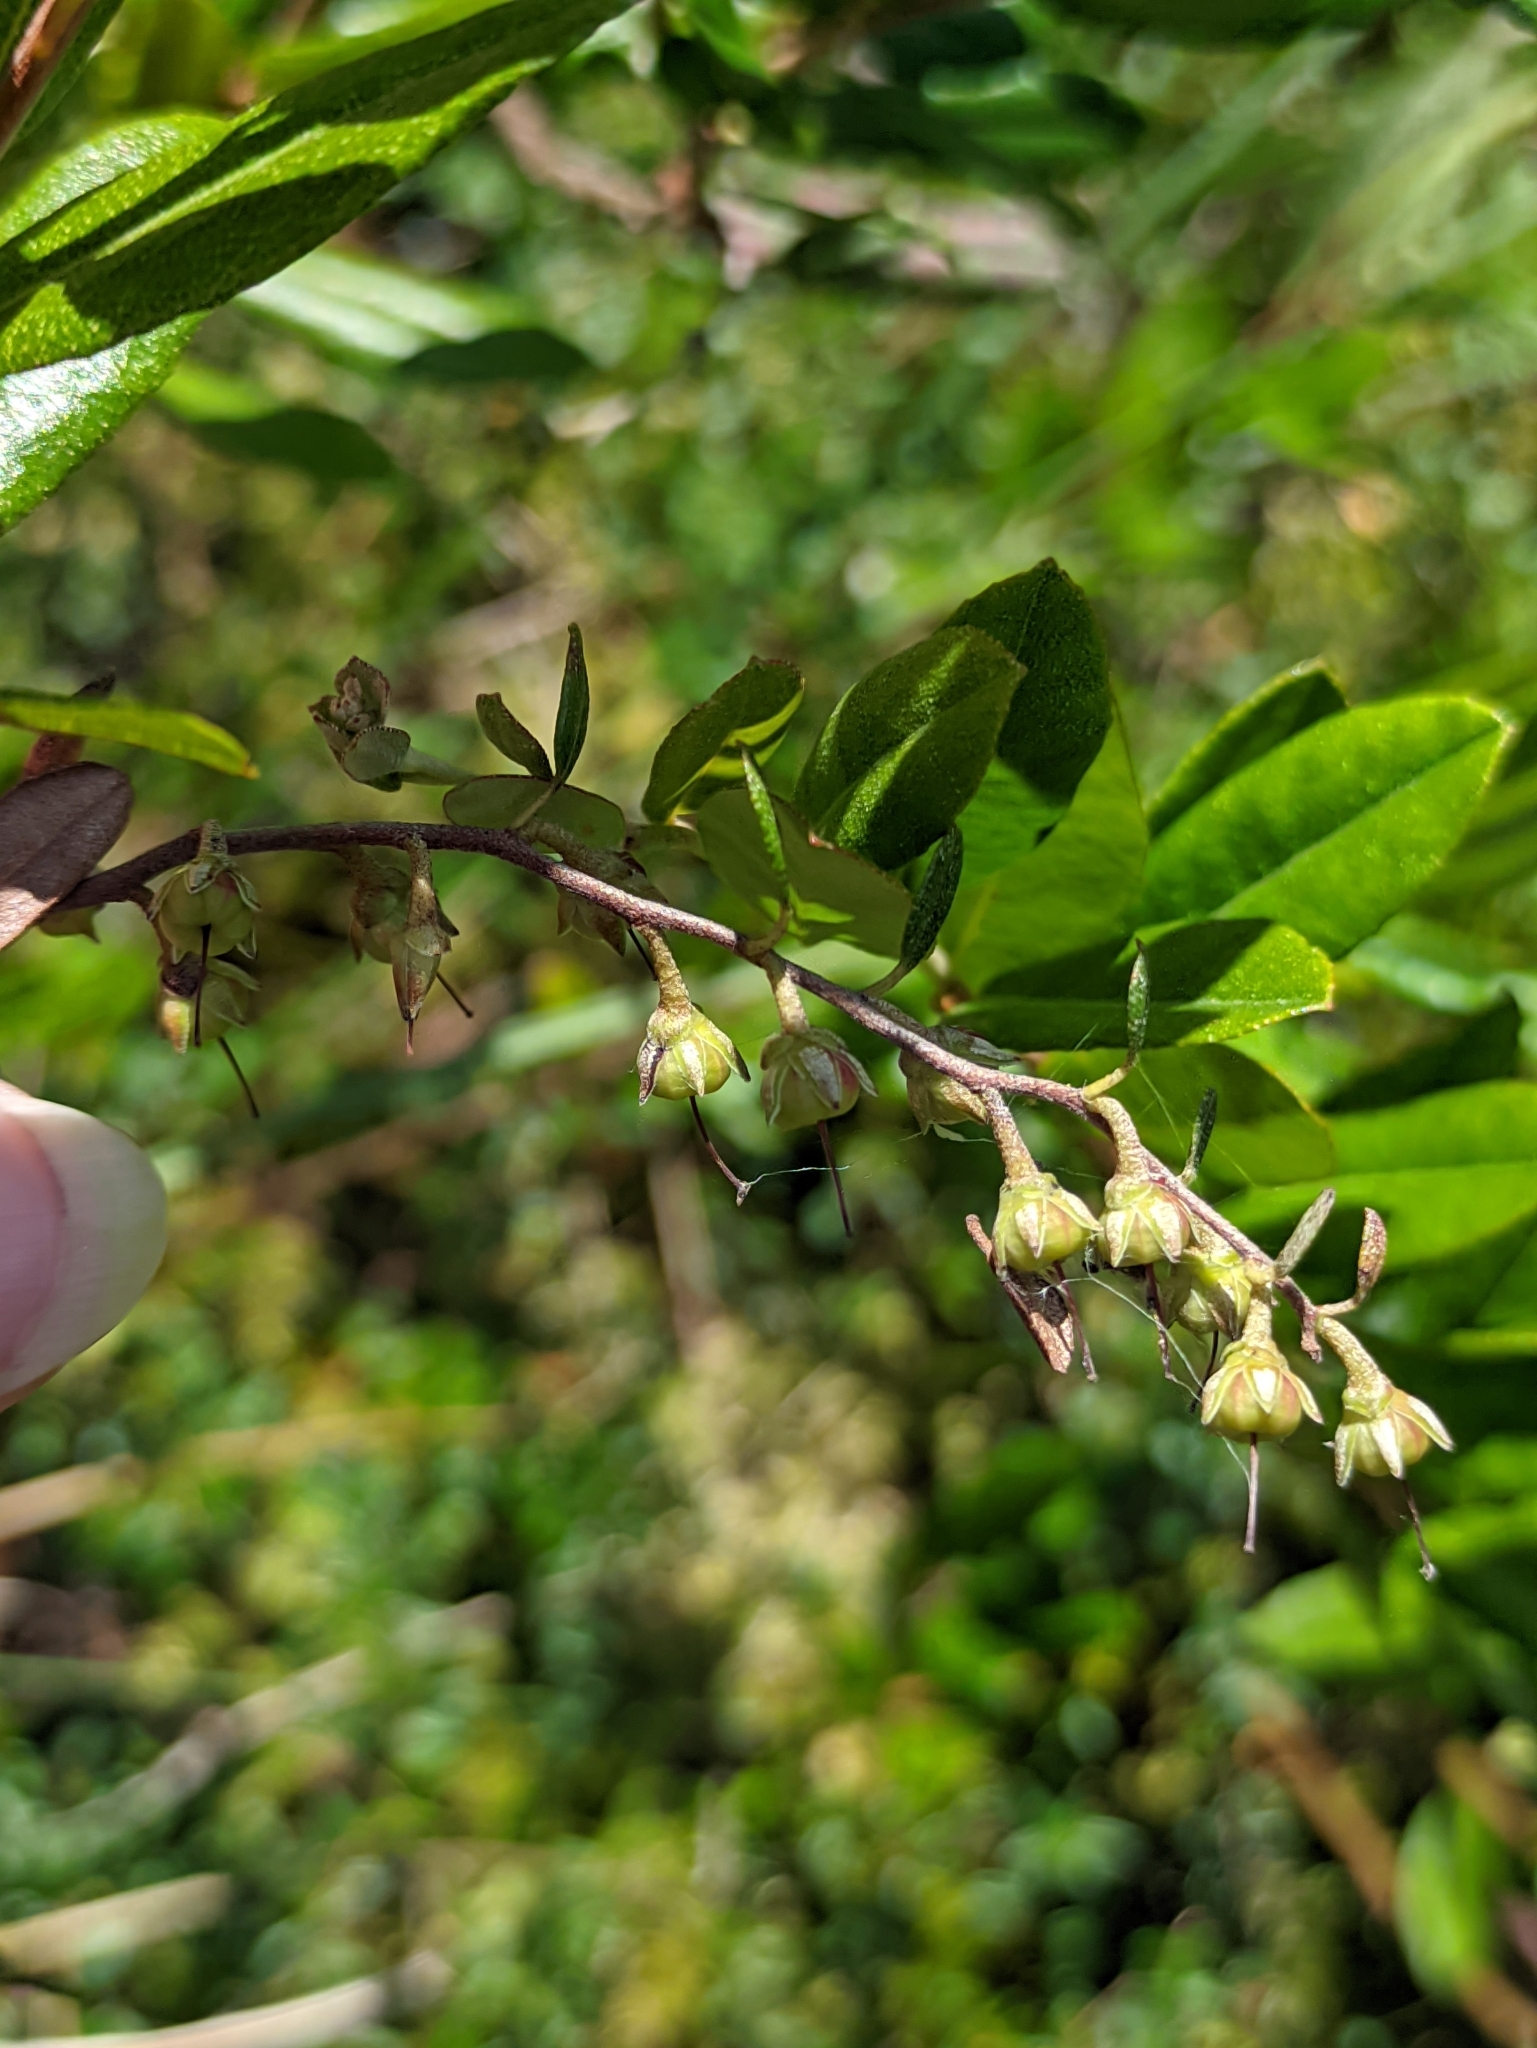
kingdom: Plantae
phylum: Tracheophyta
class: Magnoliopsida
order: Ericales
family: Ericaceae
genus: Chamaedaphne
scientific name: Chamaedaphne calyculata
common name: Leatherleaf
